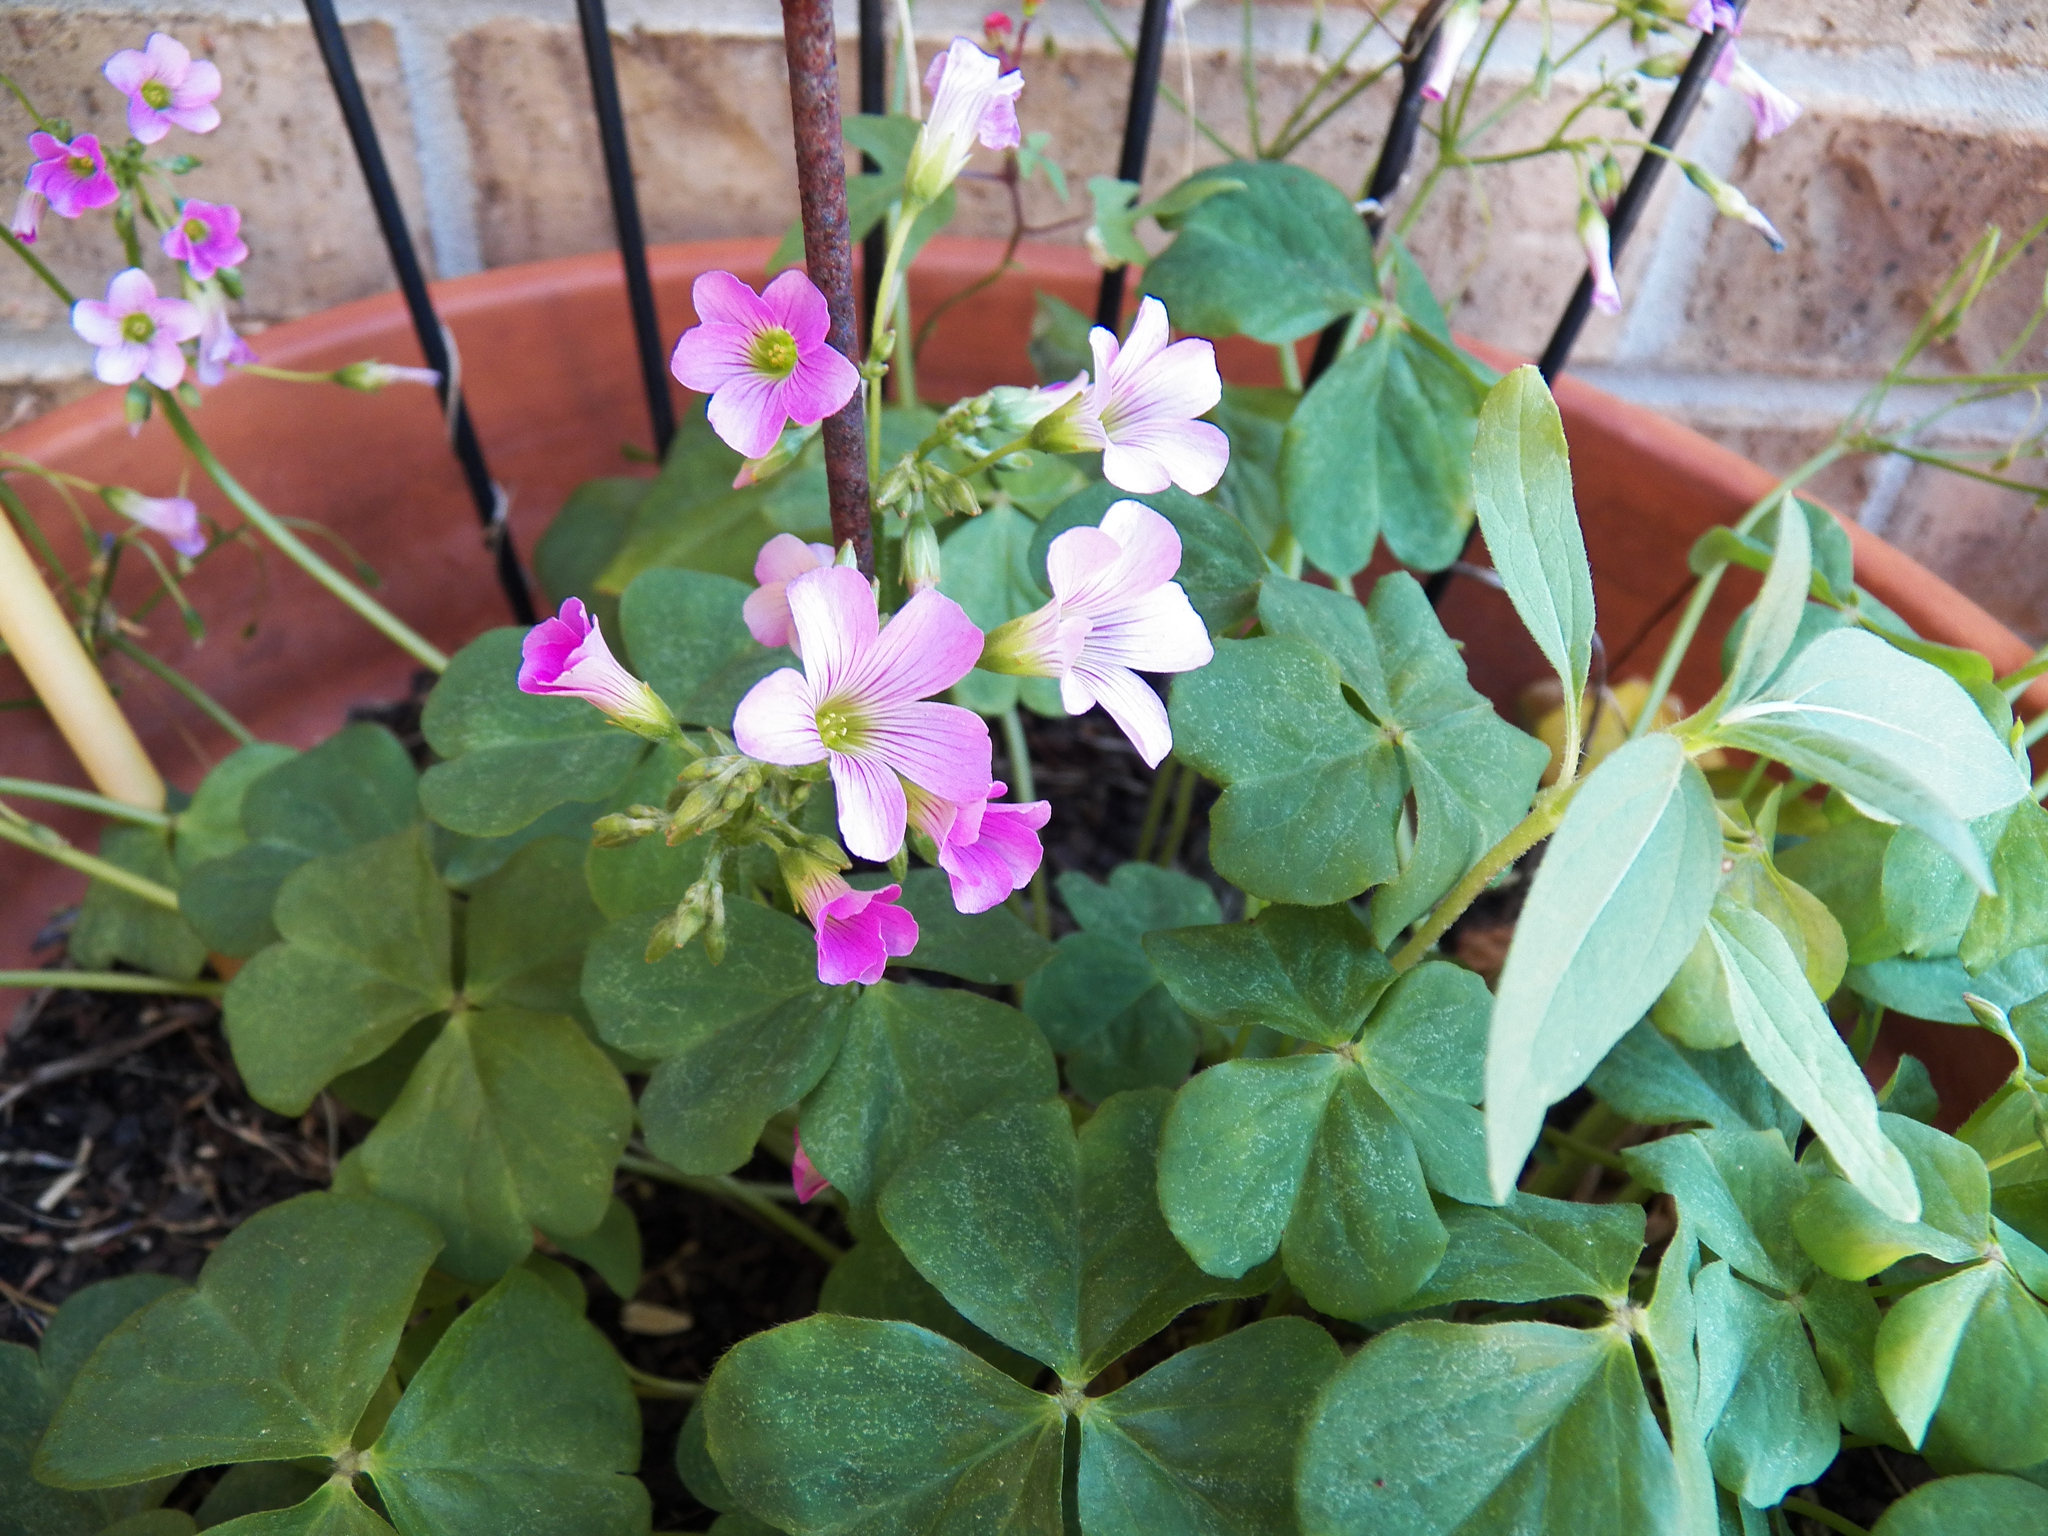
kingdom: Plantae
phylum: Tracheophyta
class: Magnoliopsida
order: Oxalidales
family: Oxalidaceae
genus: Oxalis
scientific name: Oxalis debilis
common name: Large-flowered pink-sorrel
